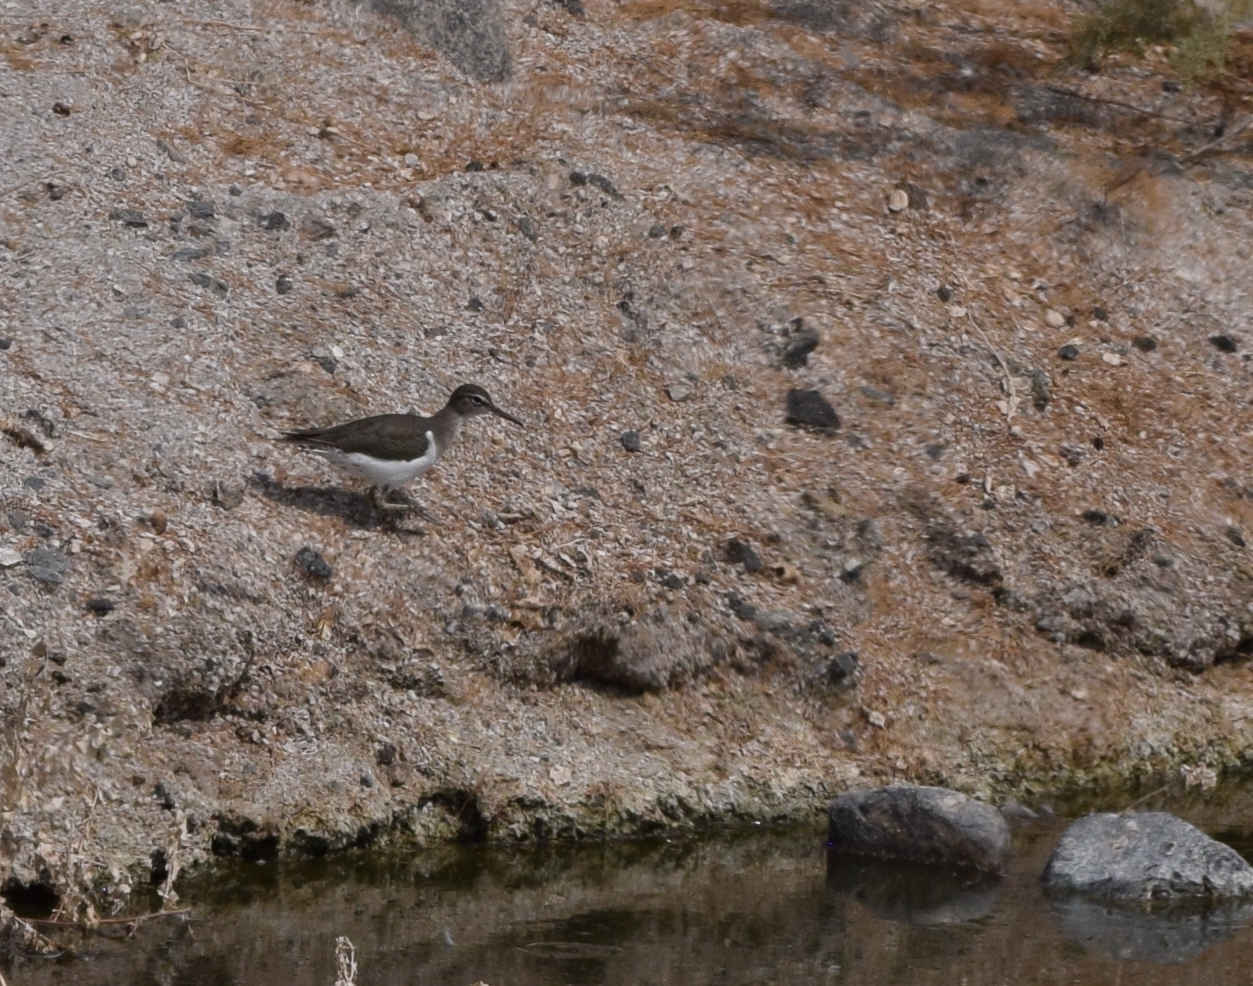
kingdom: Animalia
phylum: Chordata
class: Aves
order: Charadriiformes
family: Scolopacidae
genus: Actitis
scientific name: Actitis macularius
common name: Spotted sandpiper
